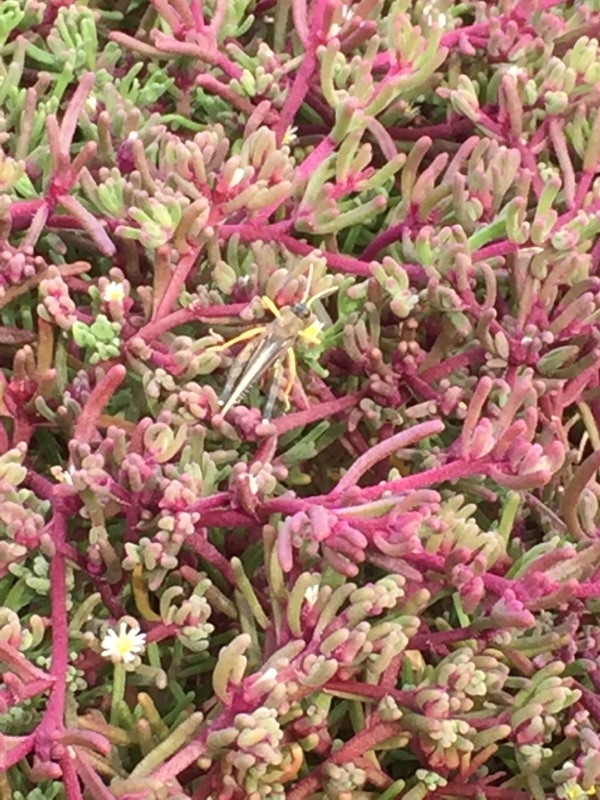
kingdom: Animalia
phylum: Arthropoda
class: Insecta
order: Orthoptera
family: Dericorythidae
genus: Dericorys
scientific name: Dericorys lobata
